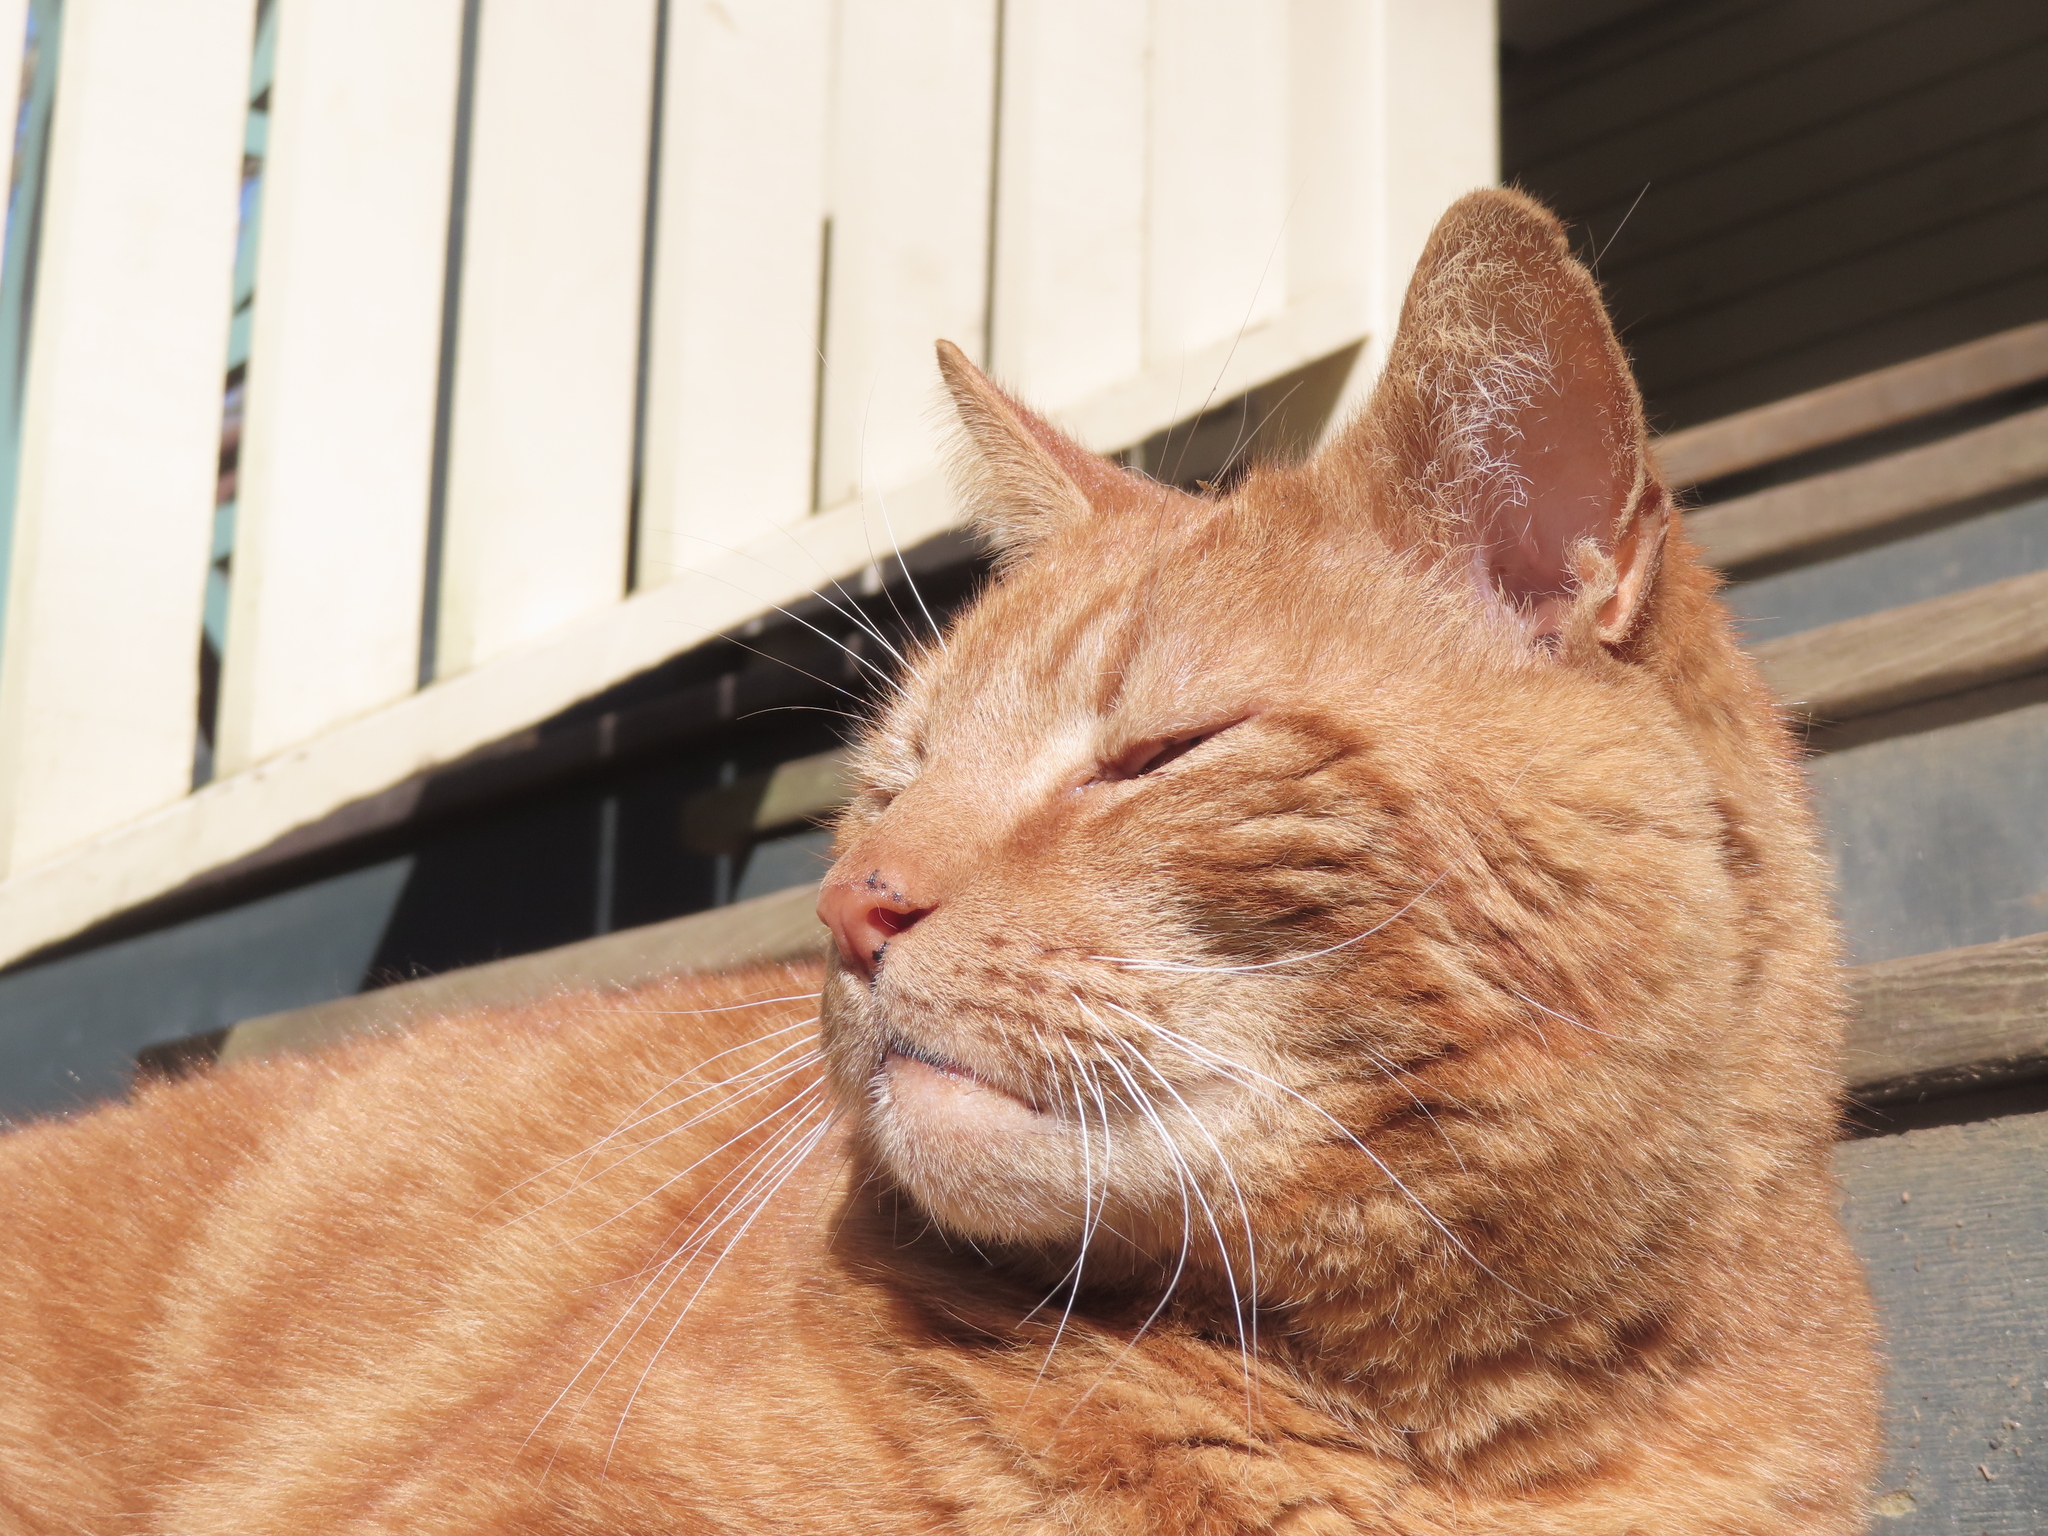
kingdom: Animalia
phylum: Chordata
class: Mammalia
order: Carnivora
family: Felidae
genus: Felis
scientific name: Felis catus
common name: Domestic cat
